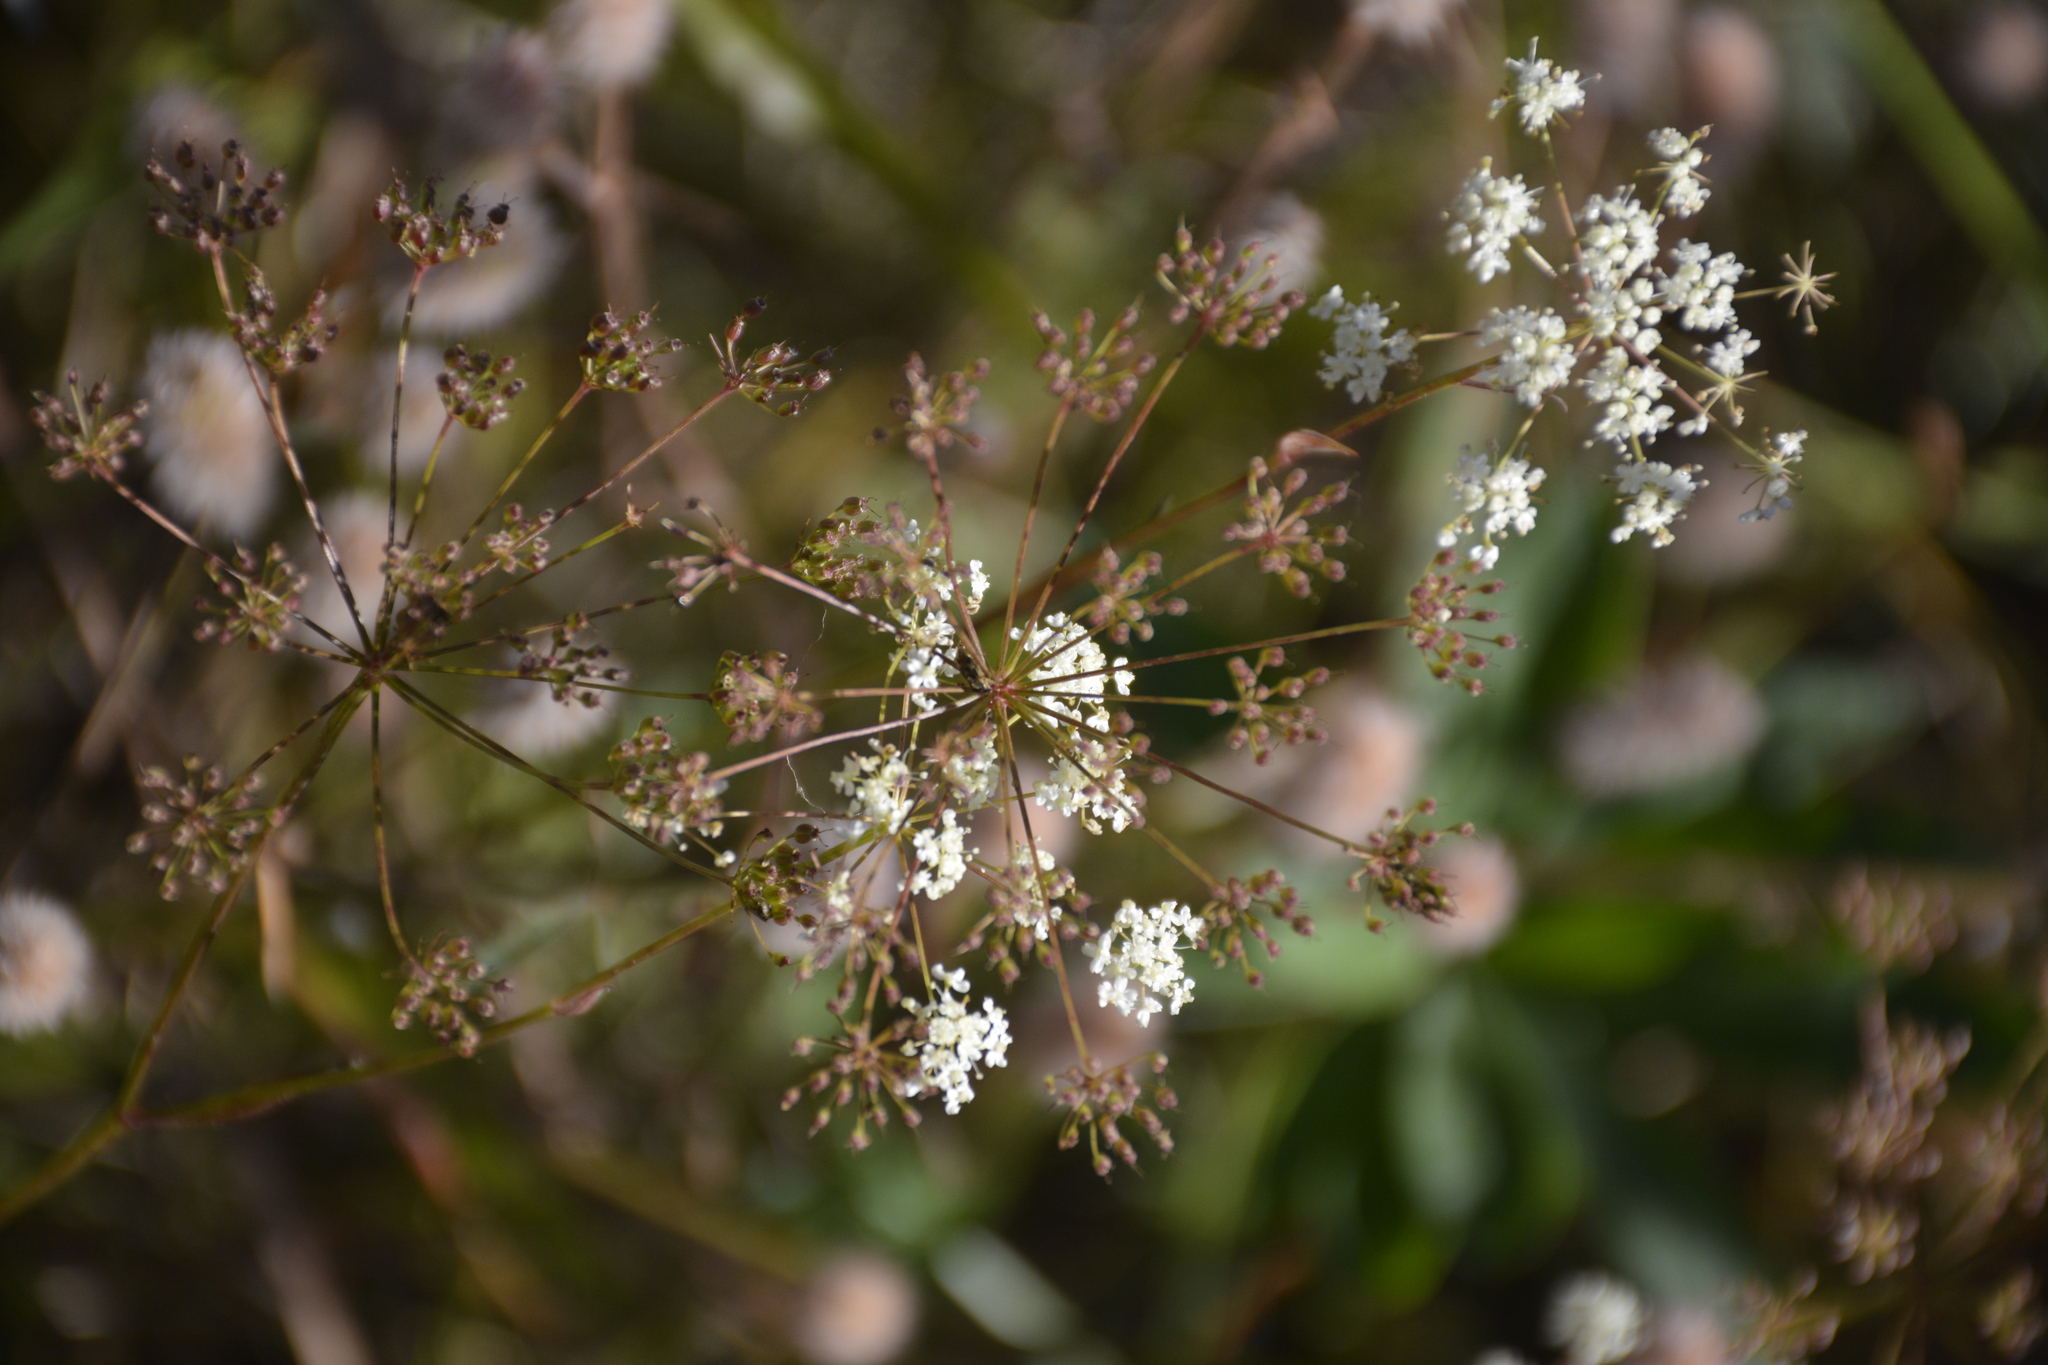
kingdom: Plantae
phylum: Tracheophyta
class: Magnoliopsida
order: Apiales
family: Apiaceae
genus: Pimpinella
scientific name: Pimpinella saxifraga
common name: Burnet-saxifrage
